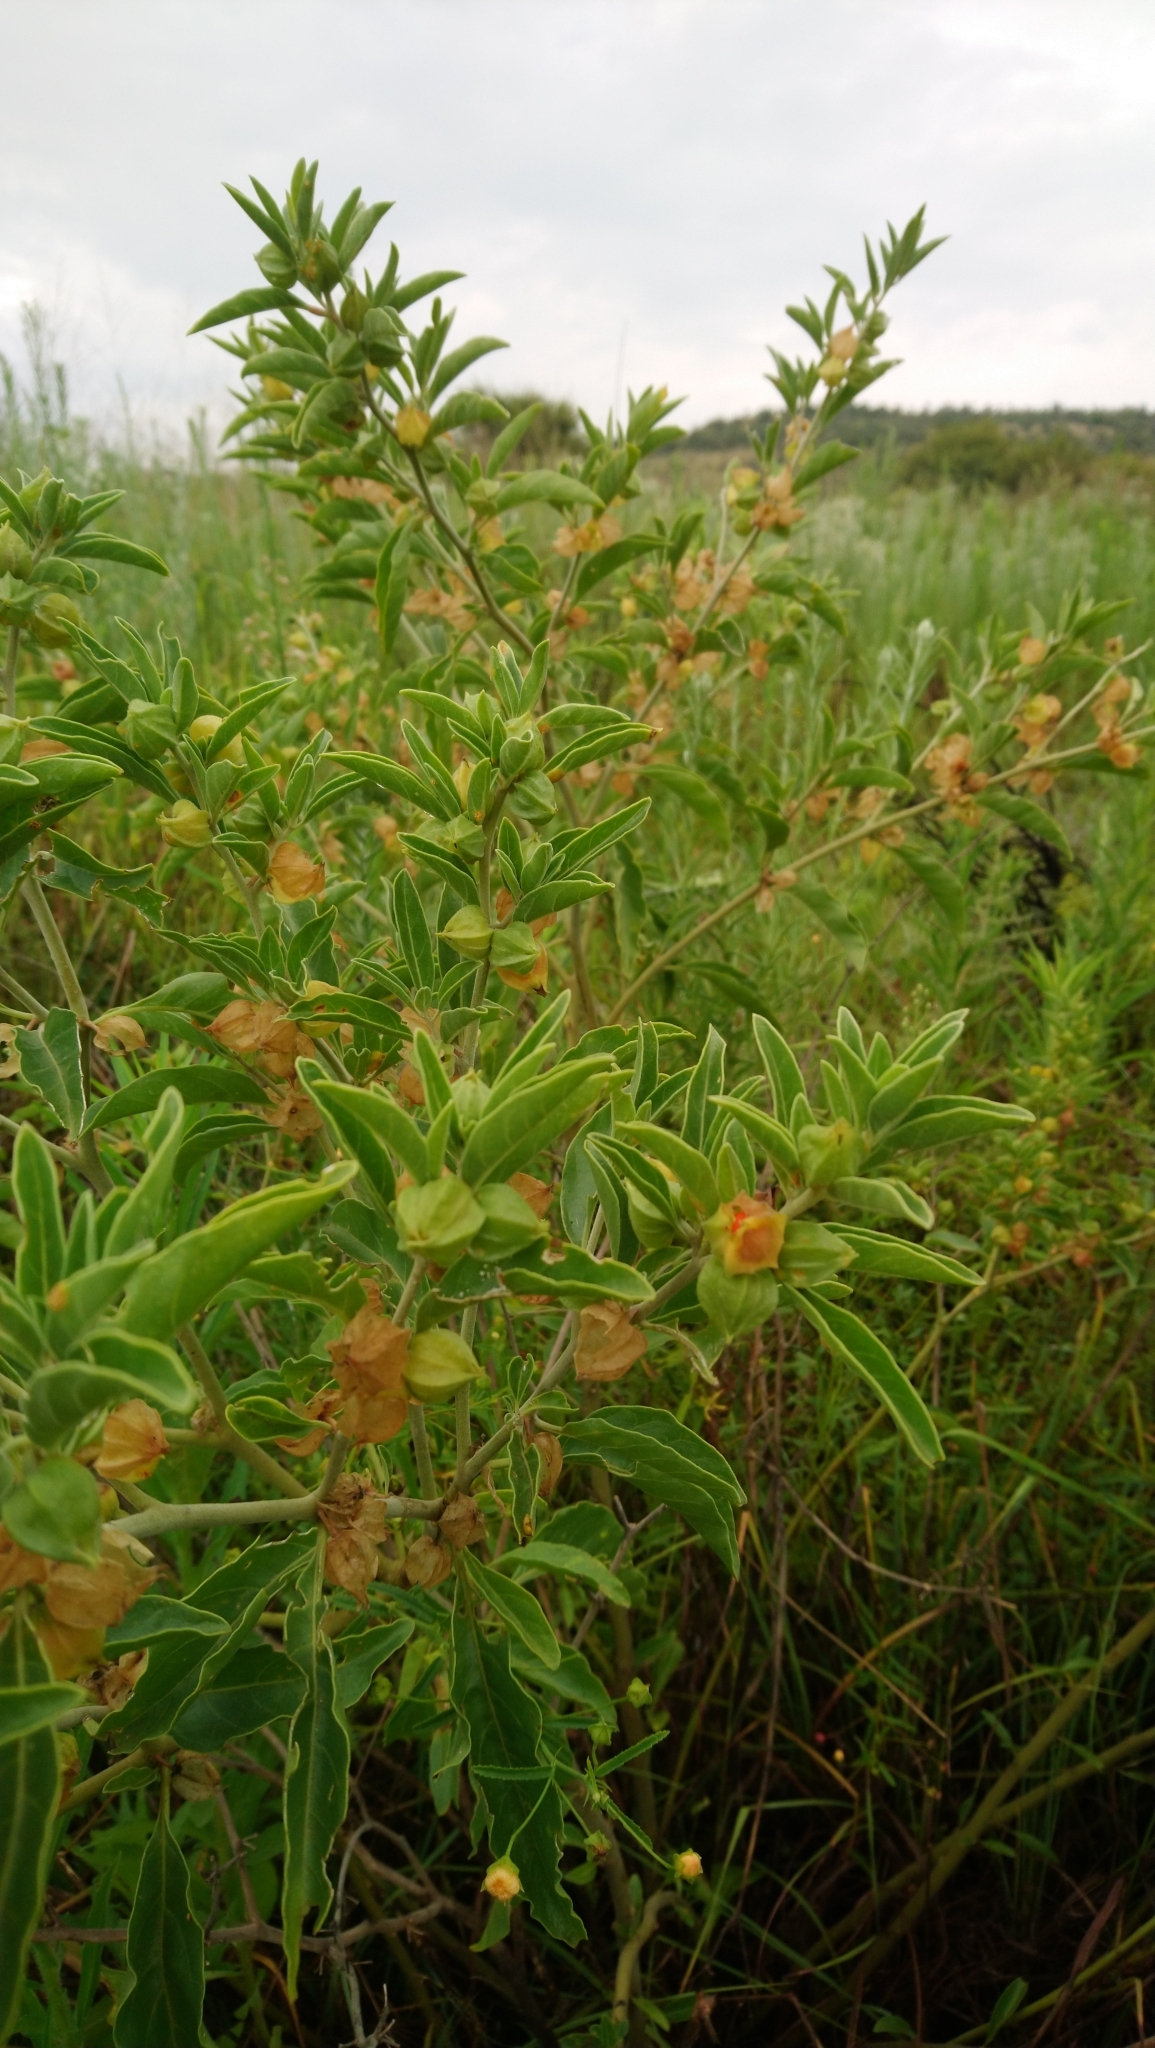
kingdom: Plantae
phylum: Tracheophyta
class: Magnoliopsida
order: Solanales
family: Solanaceae
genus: Withania
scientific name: Withania somnifera
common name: Winter-cherry
